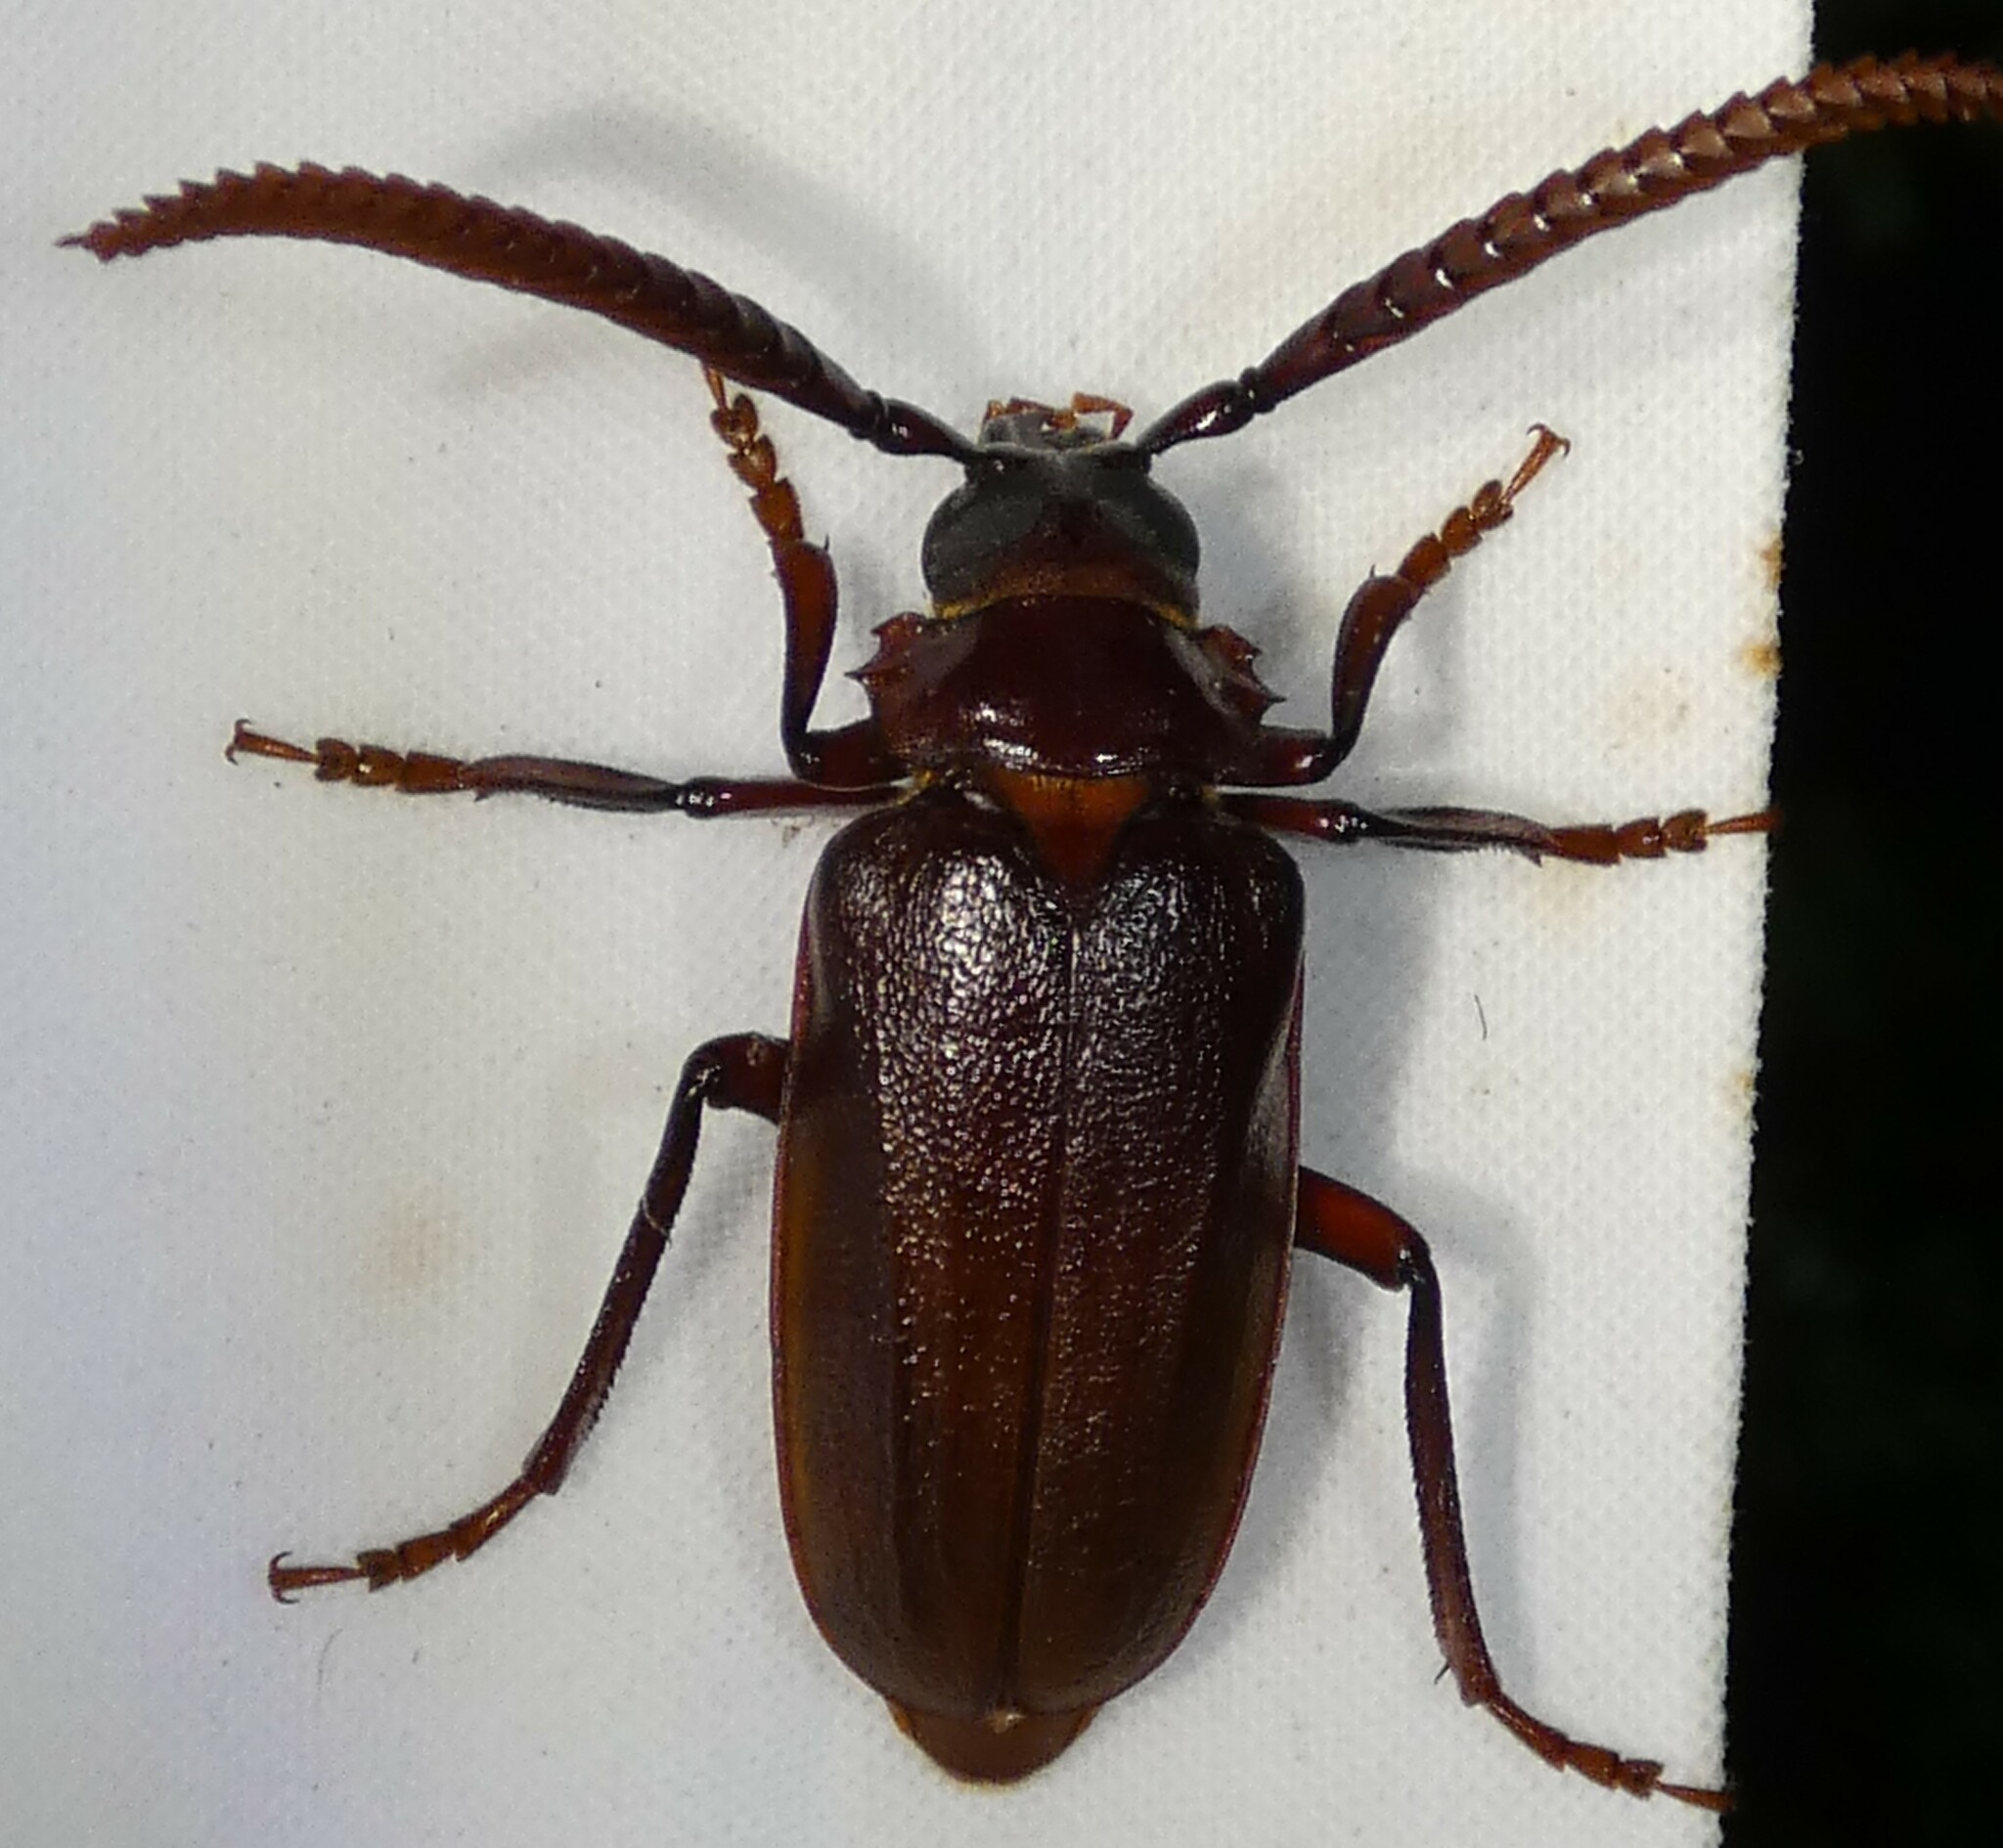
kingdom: Animalia
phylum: Arthropoda
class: Insecta
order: Coleoptera
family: Cerambycidae
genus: Prionus
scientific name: Prionus imbricornis
